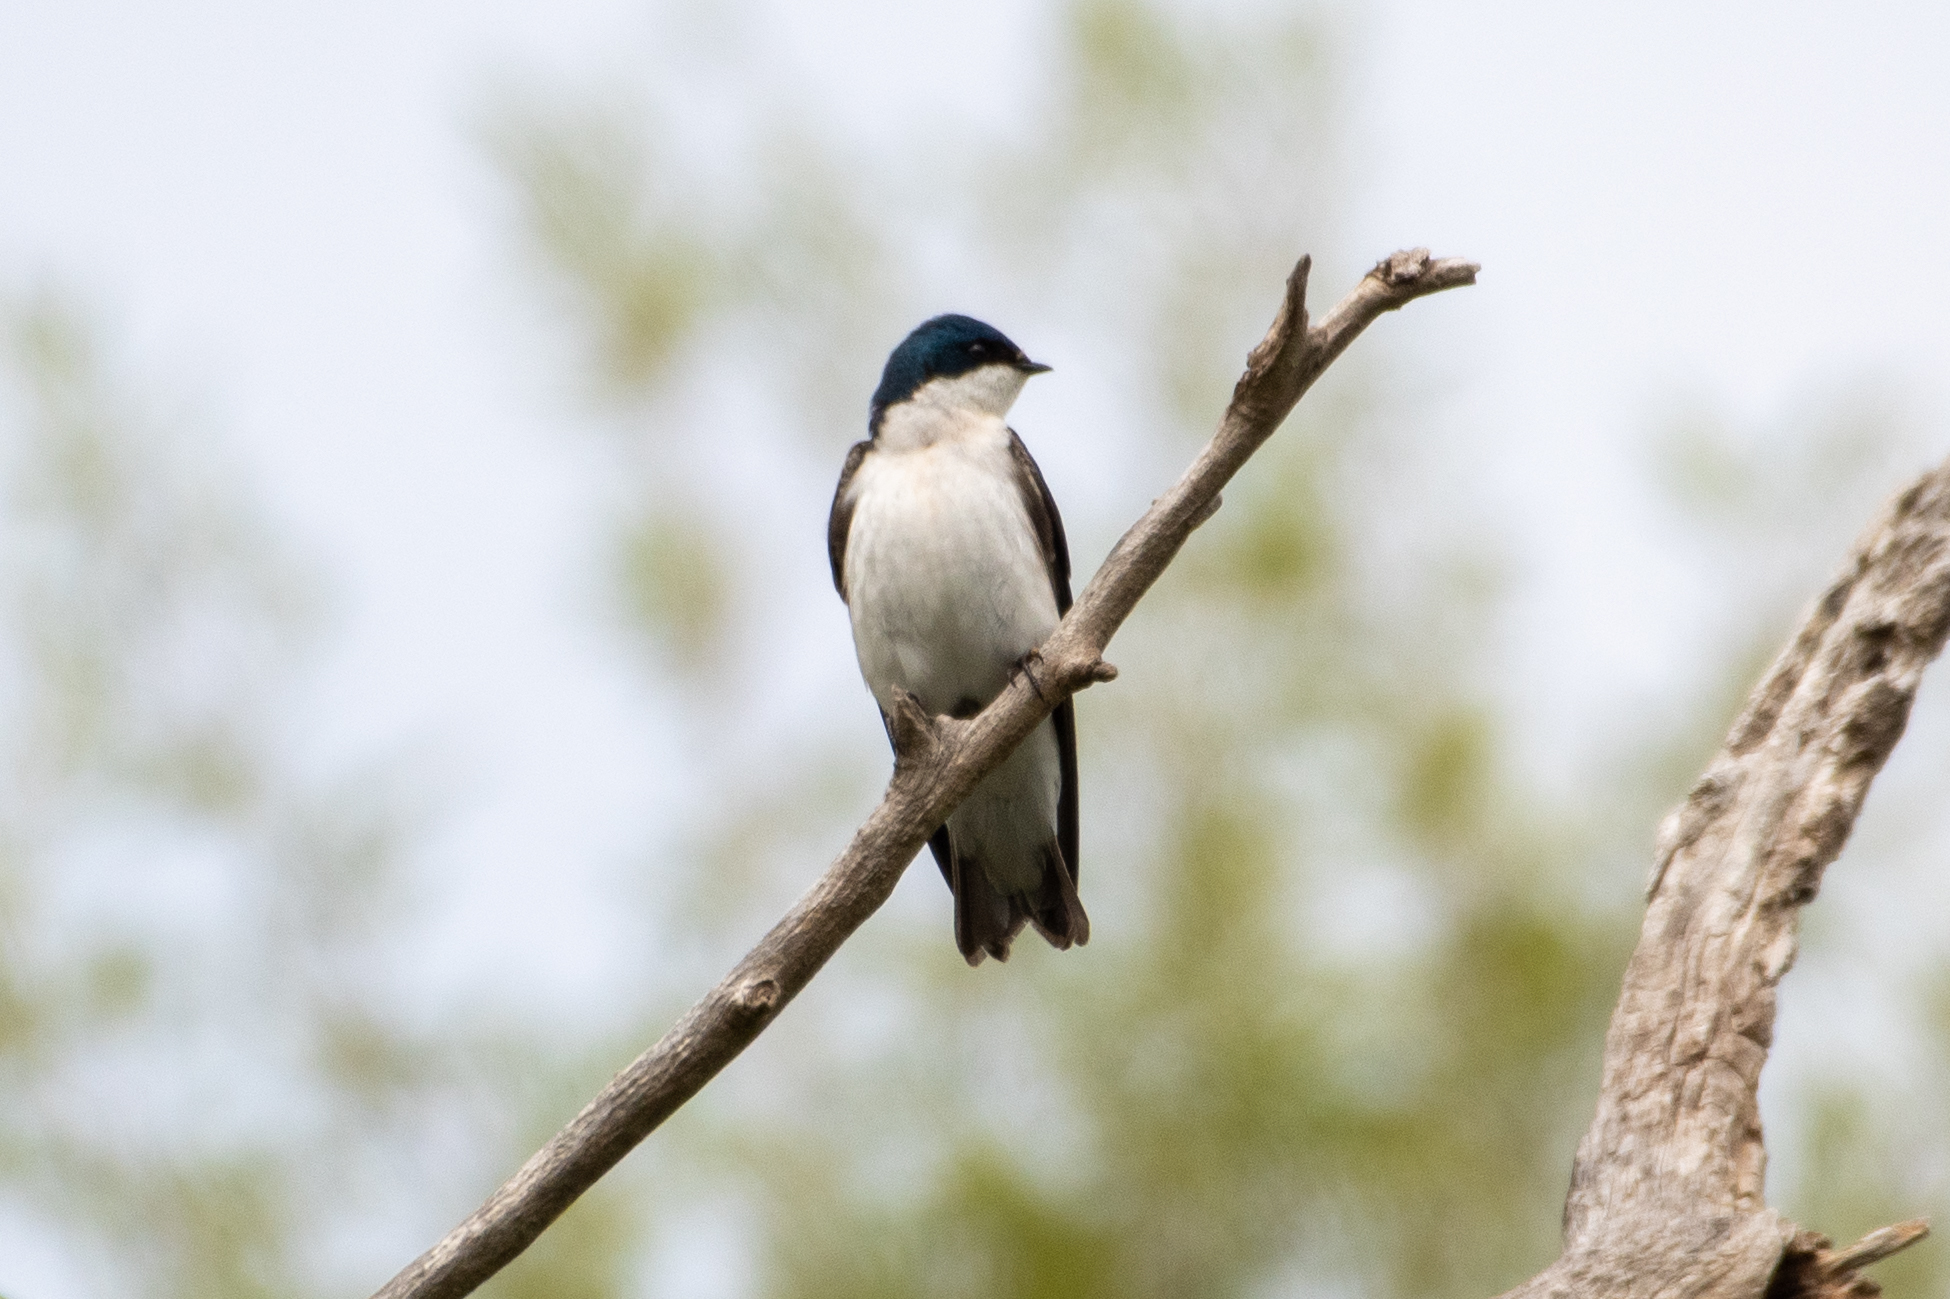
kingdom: Animalia
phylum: Chordata
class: Aves
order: Passeriformes
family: Hirundinidae
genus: Tachycineta
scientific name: Tachycineta bicolor
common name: Tree swallow
